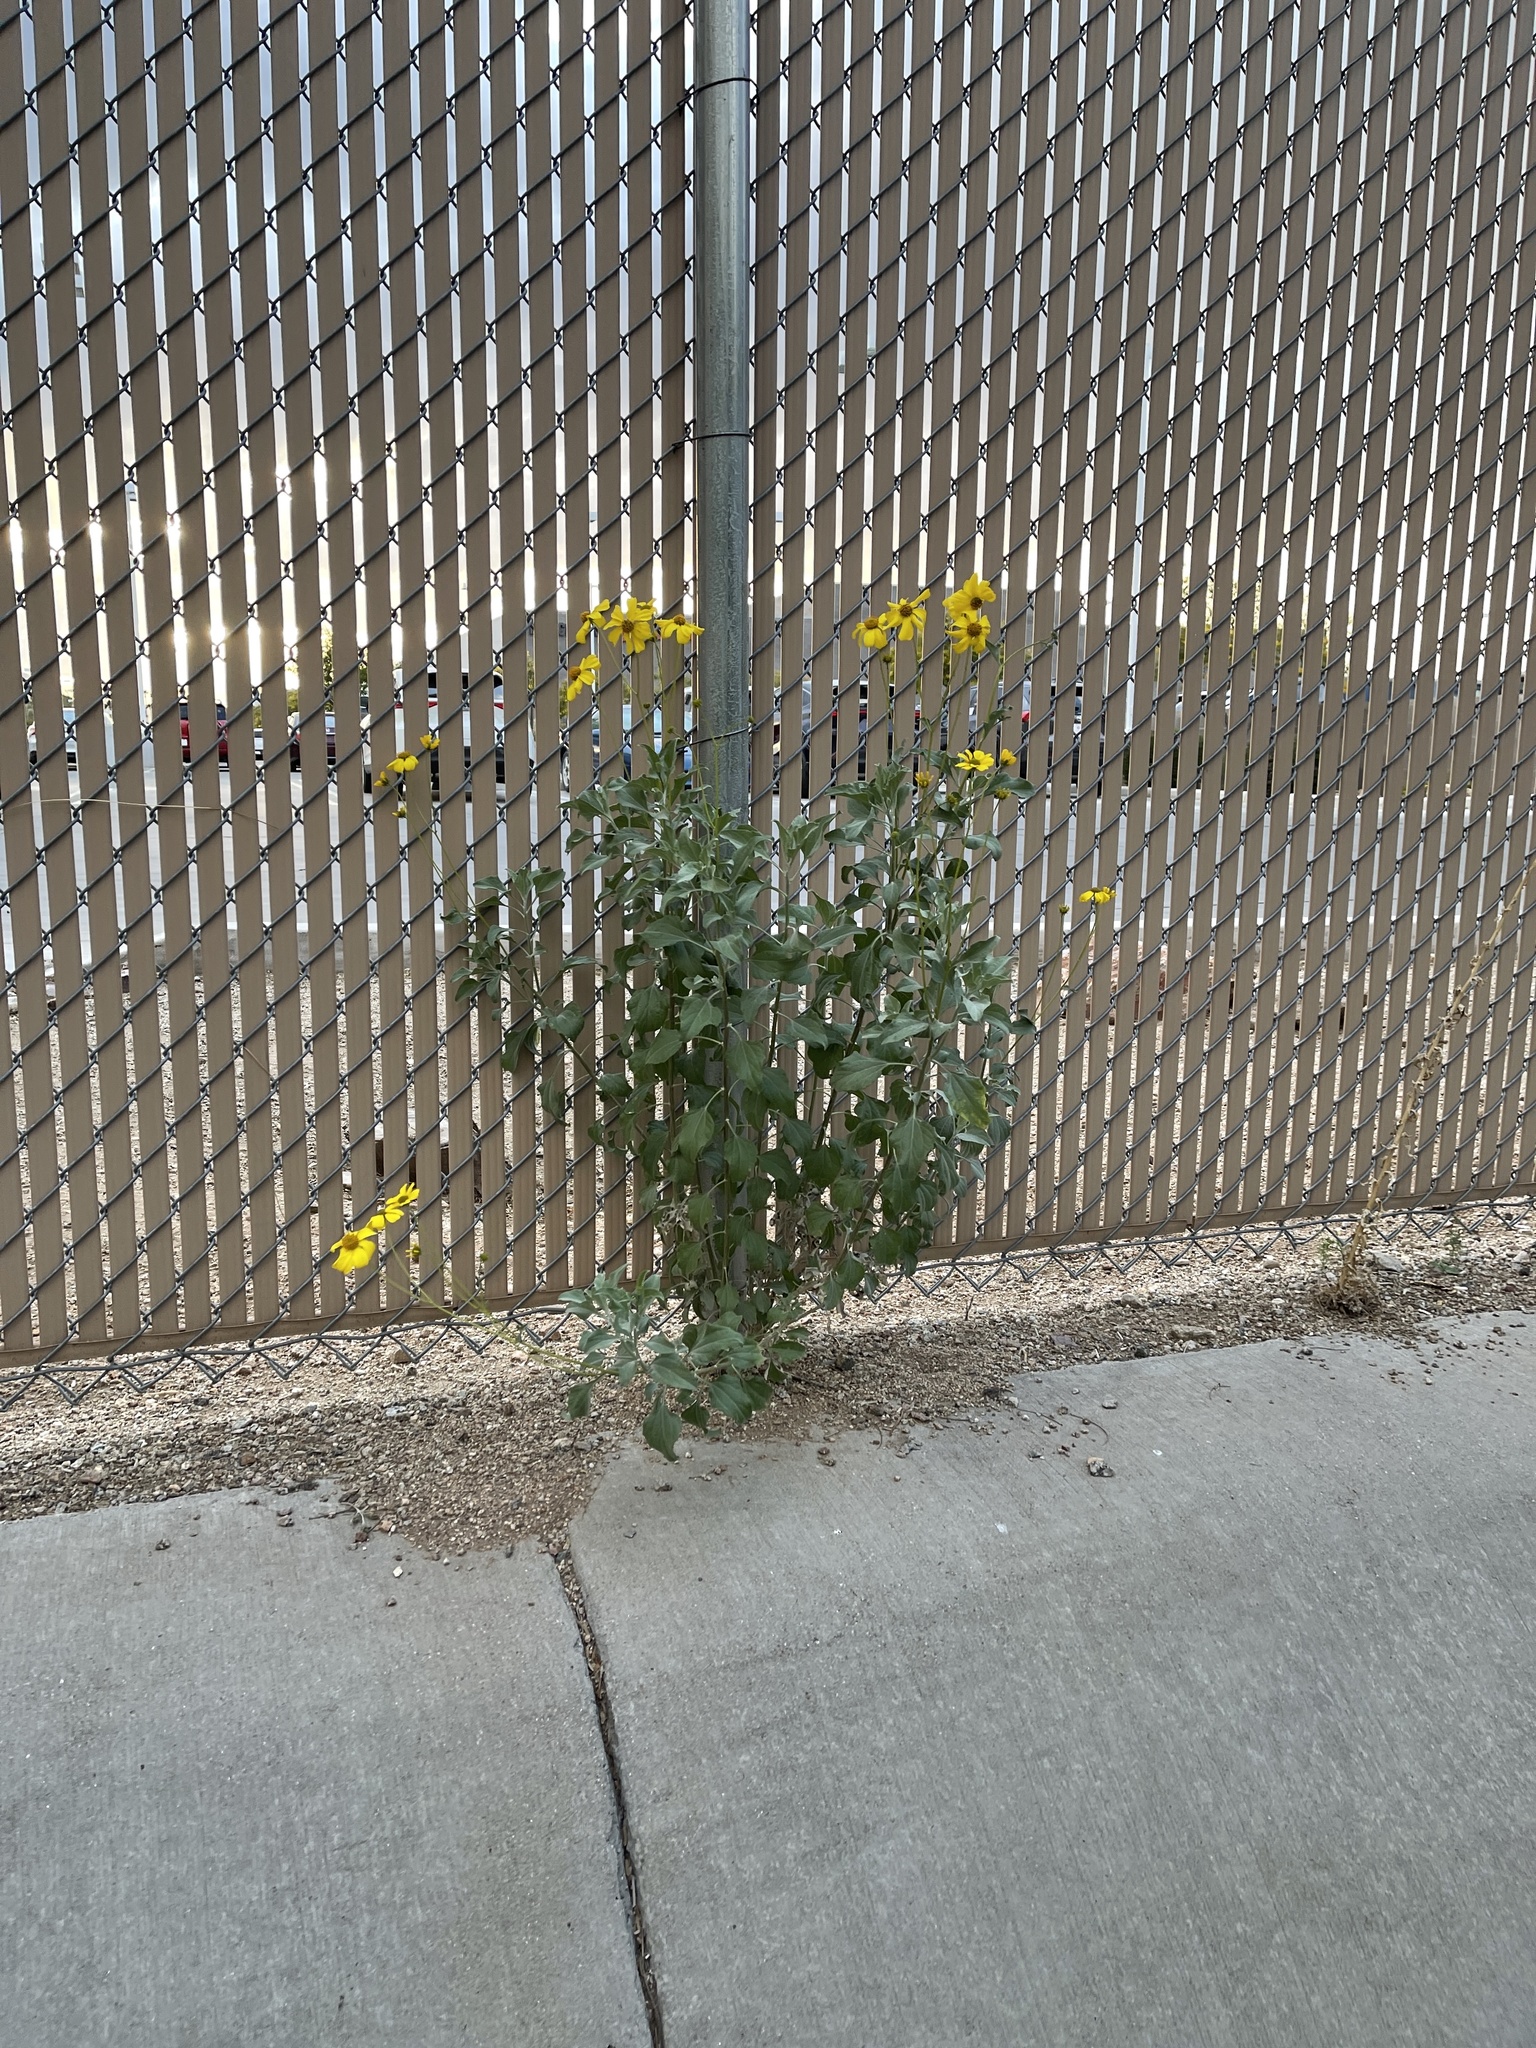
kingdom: Plantae
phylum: Tracheophyta
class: Magnoliopsida
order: Asterales
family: Asteraceae
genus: Encelia
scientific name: Encelia farinosa
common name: Brittlebush
